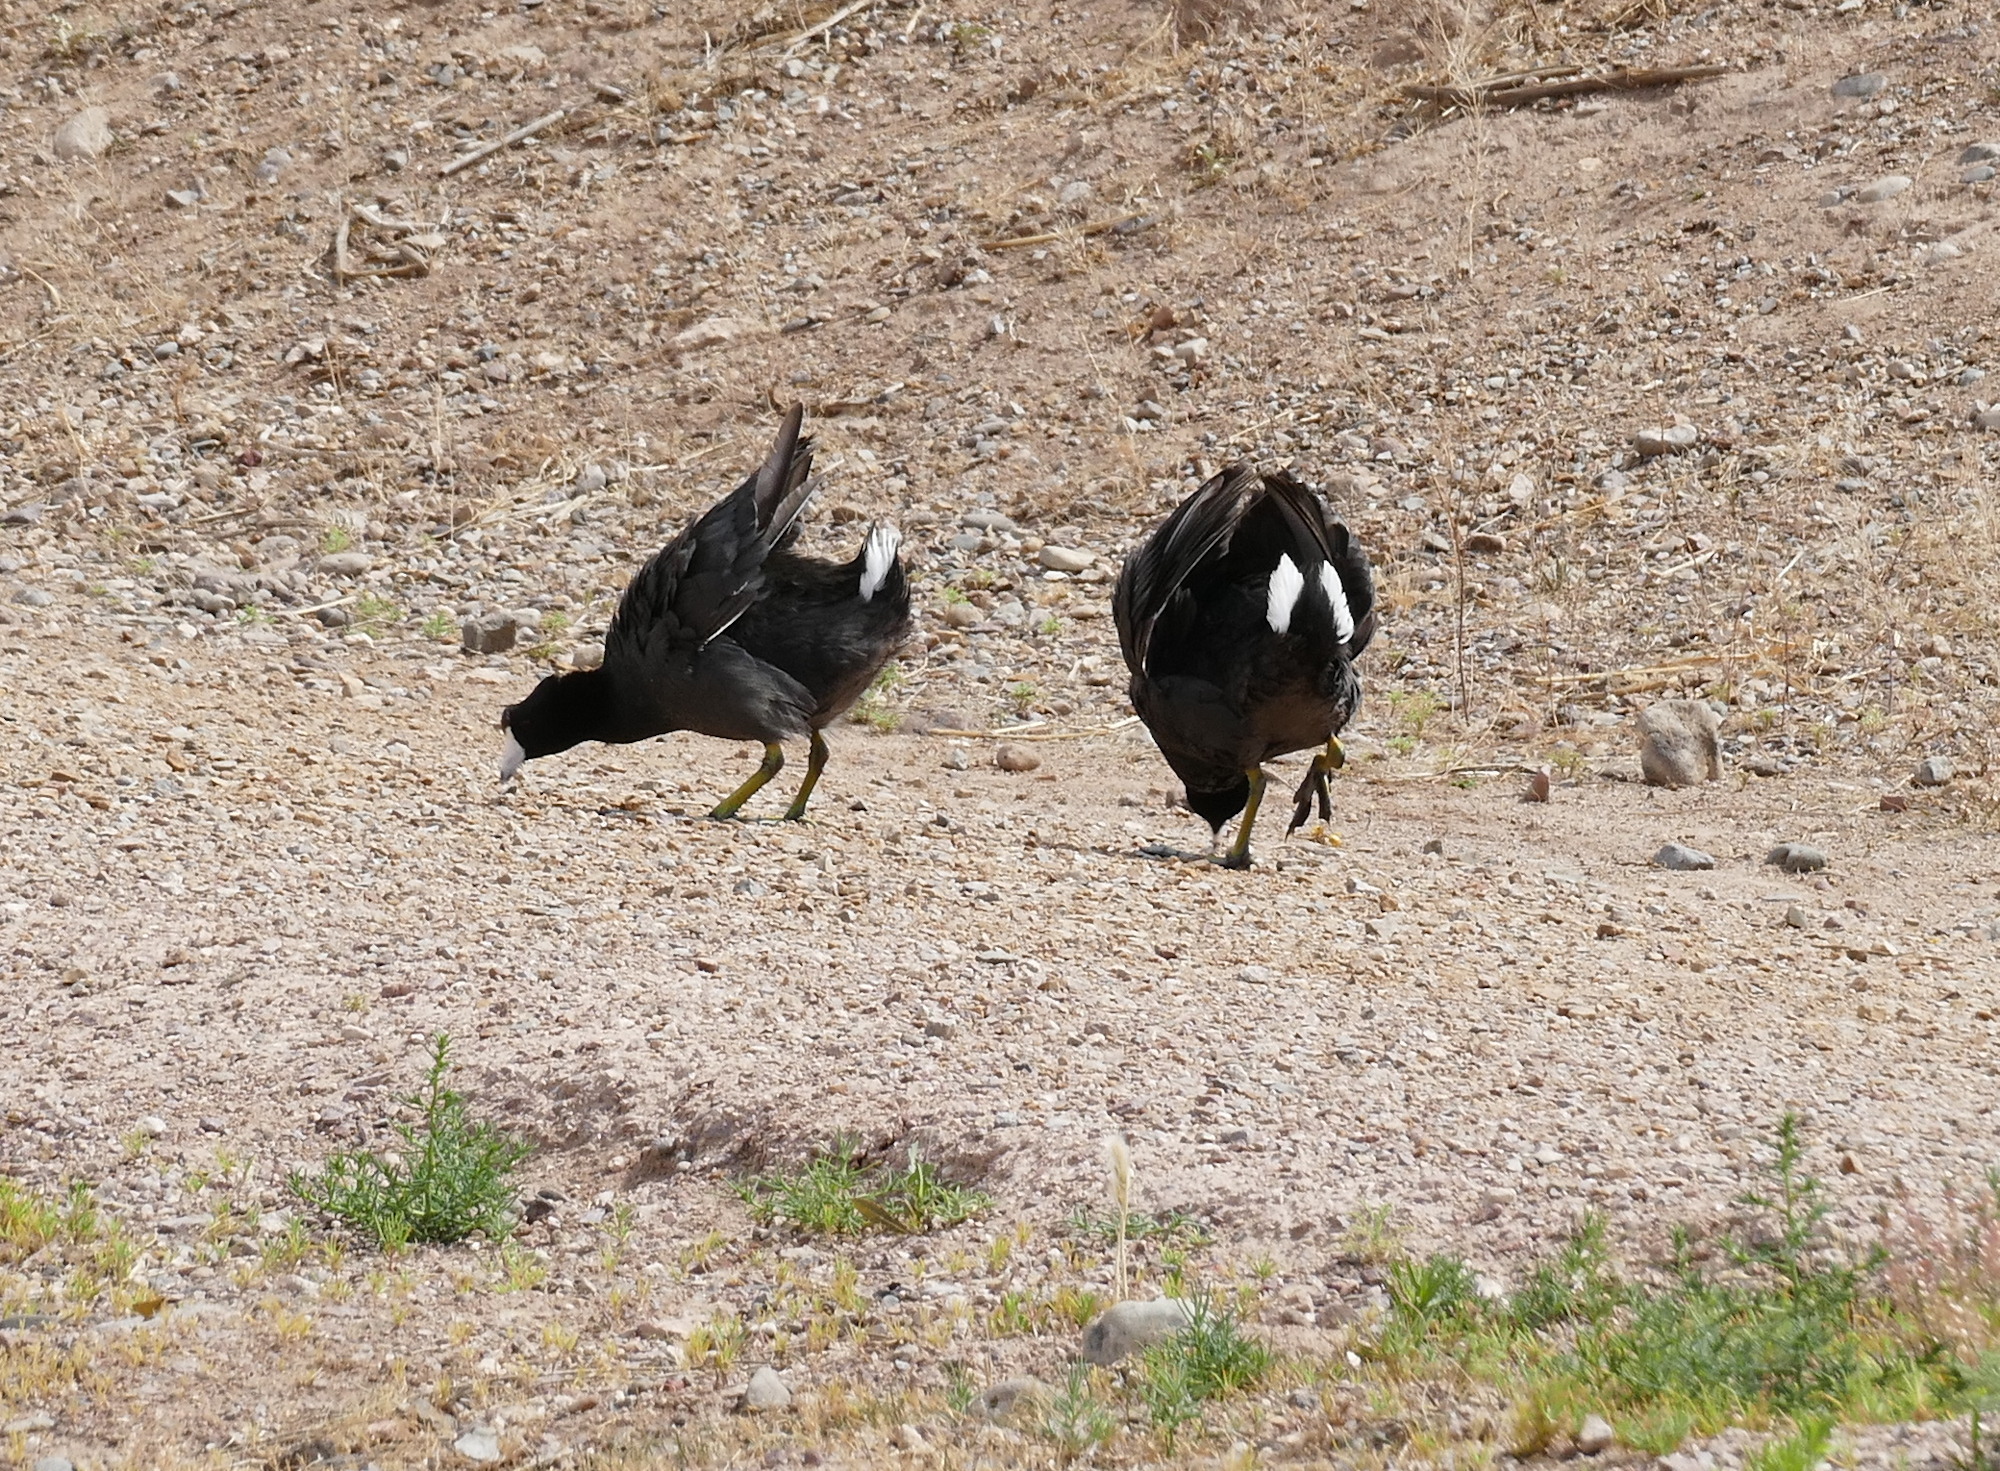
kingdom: Animalia
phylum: Chordata
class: Aves
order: Gruiformes
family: Rallidae
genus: Fulica
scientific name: Fulica americana
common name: American coot
